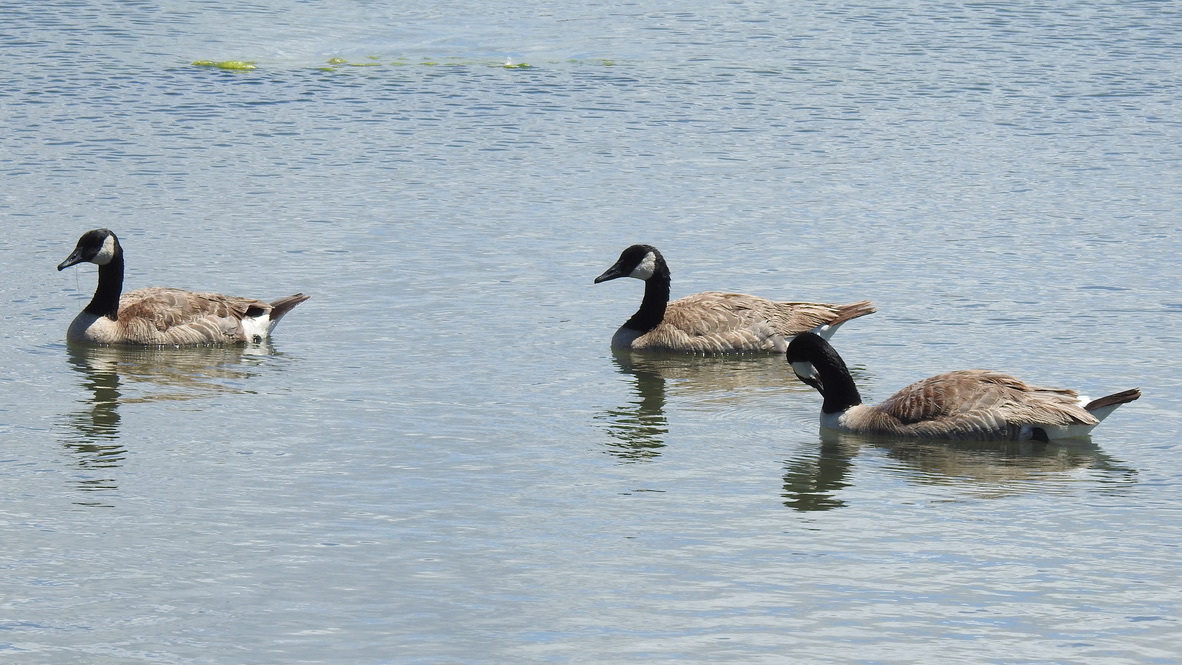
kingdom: Animalia
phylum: Chordata
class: Aves
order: Anseriformes
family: Anatidae
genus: Branta
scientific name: Branta canadensis
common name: Canada goose
